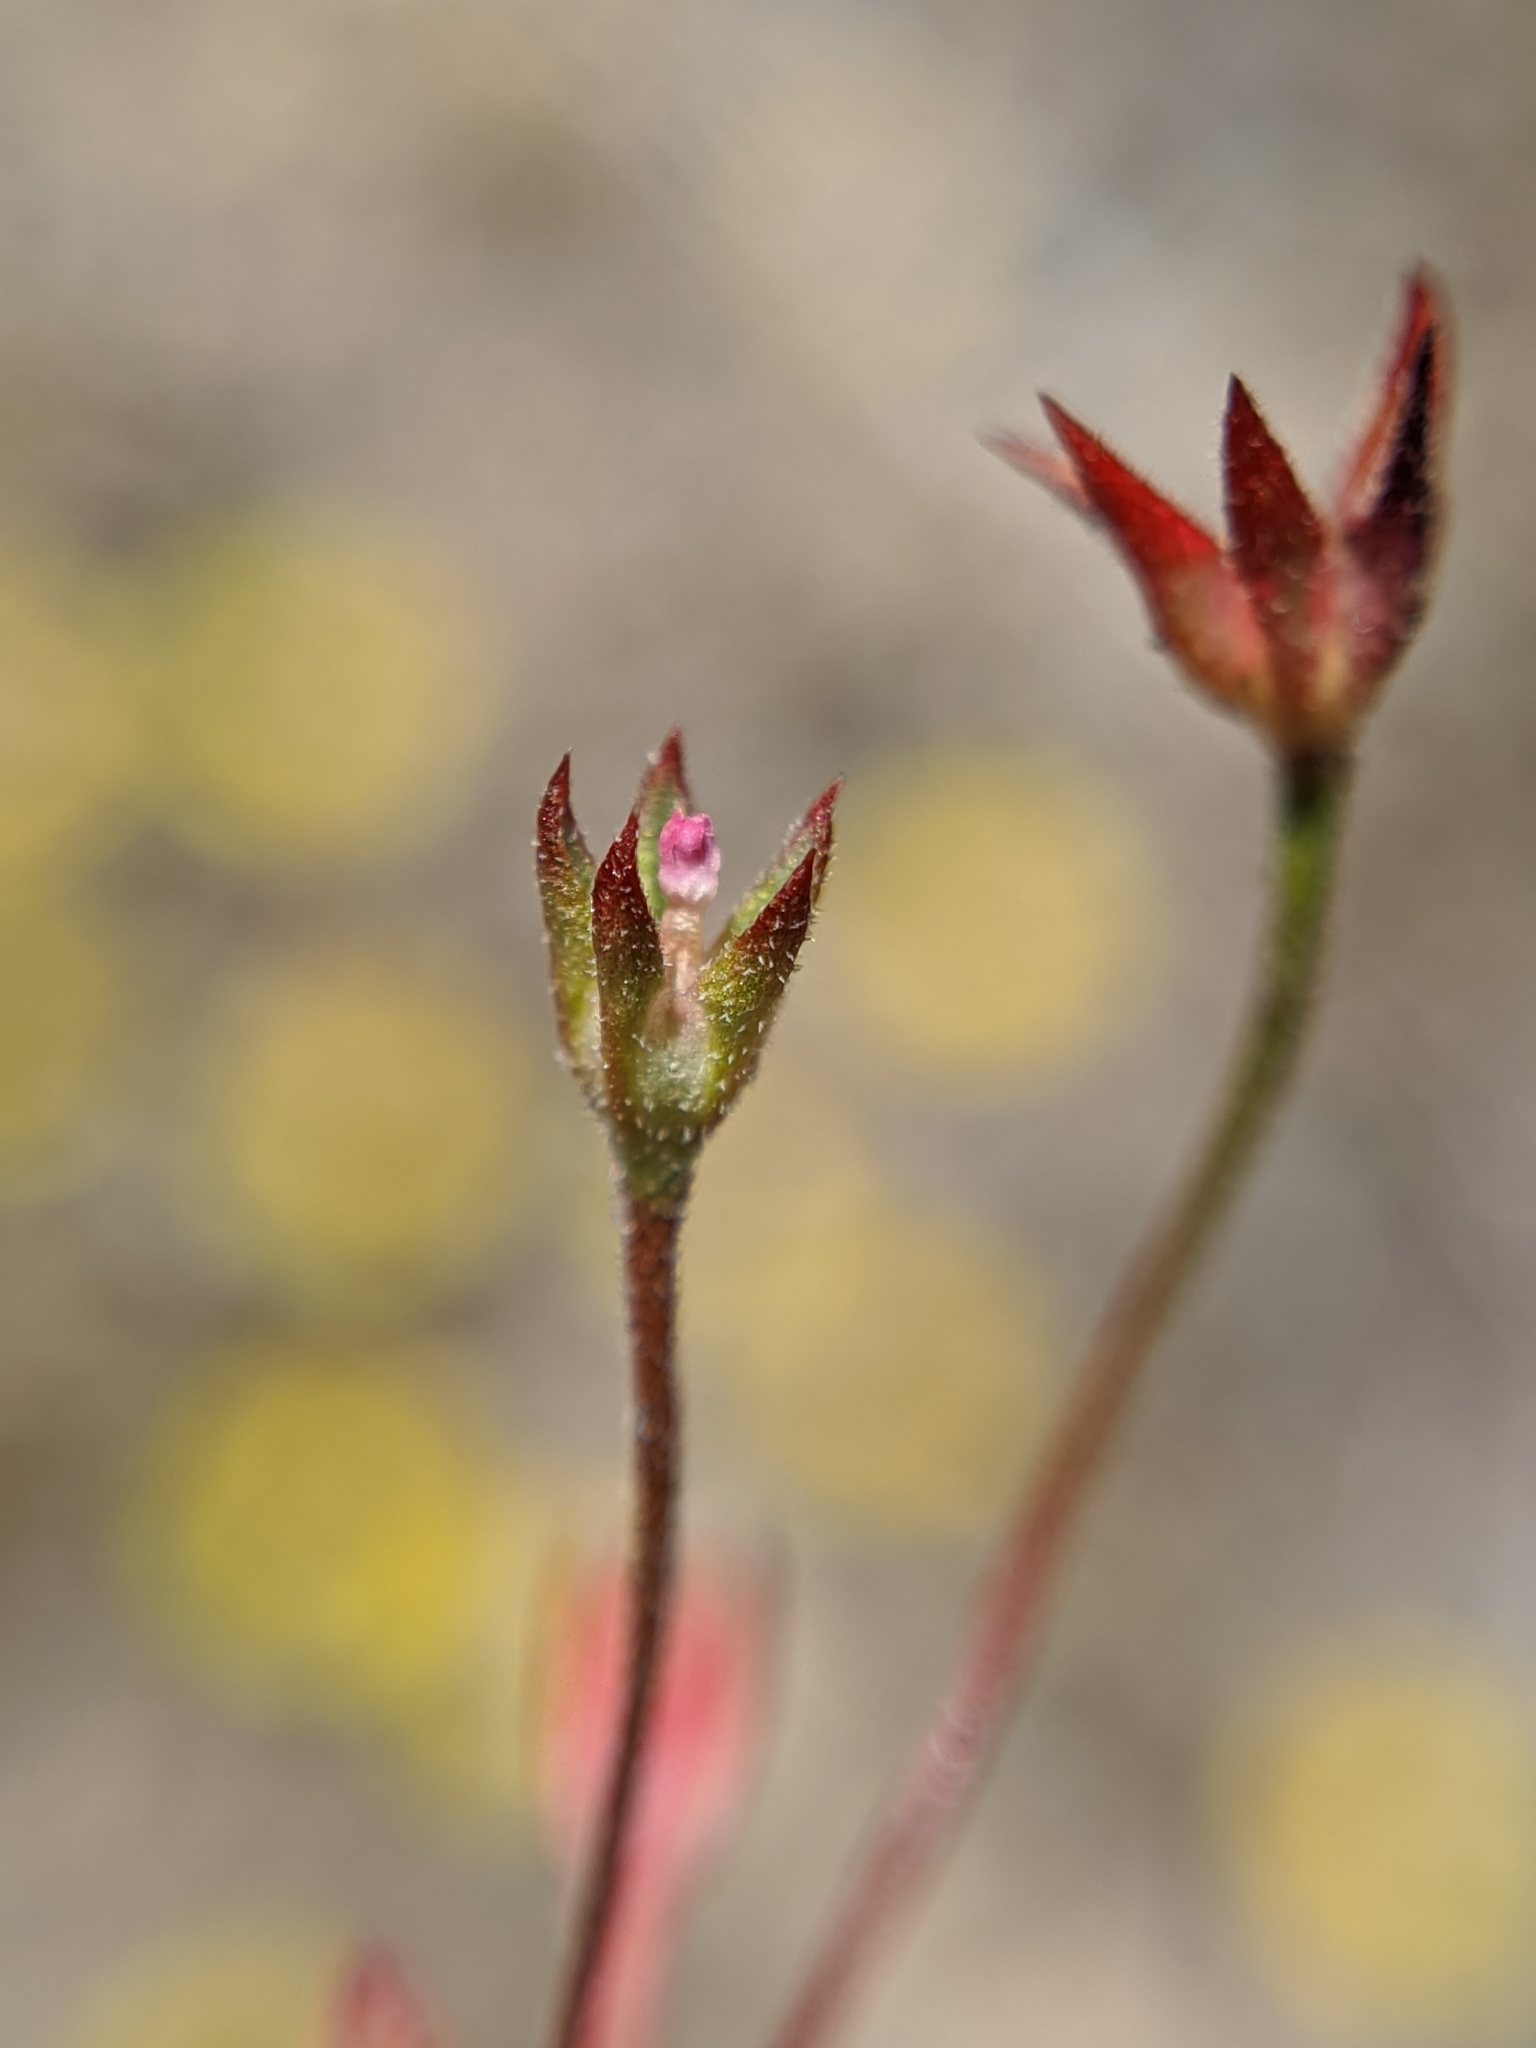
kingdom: Plantae
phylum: Tracheophyta
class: Magnoliopsida
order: Ericales
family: Primulaceae
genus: Androsace
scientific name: Androsace elongata
